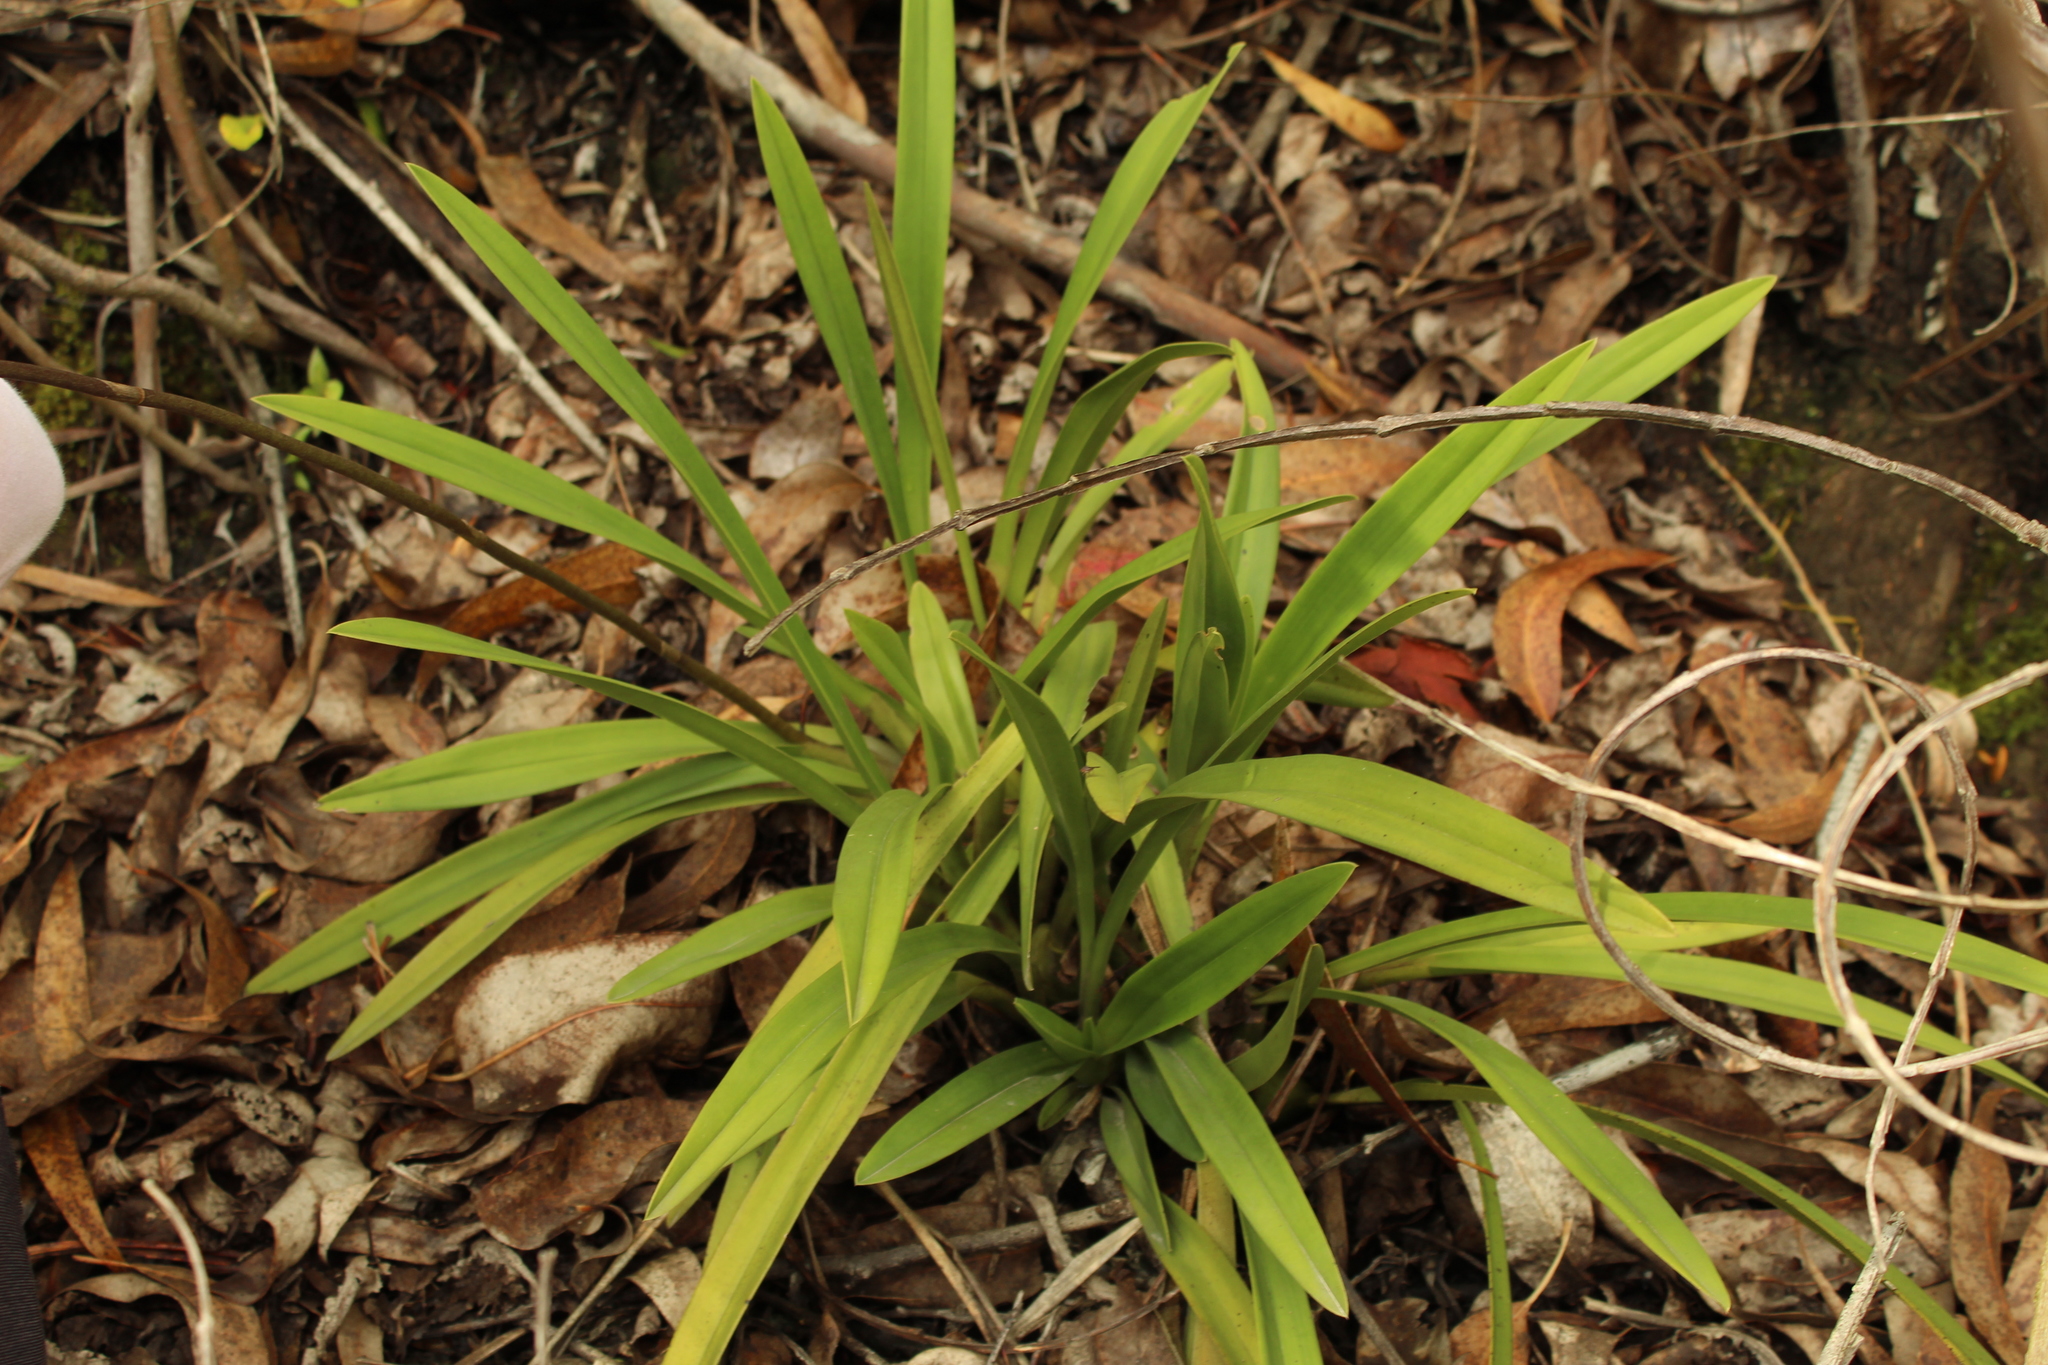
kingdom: Plantae
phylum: Tracheophyta
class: Liliopsida
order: Asparagales
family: Orchidaceae
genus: Cyrtochilum
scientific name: Cyrtochilum revolutum
